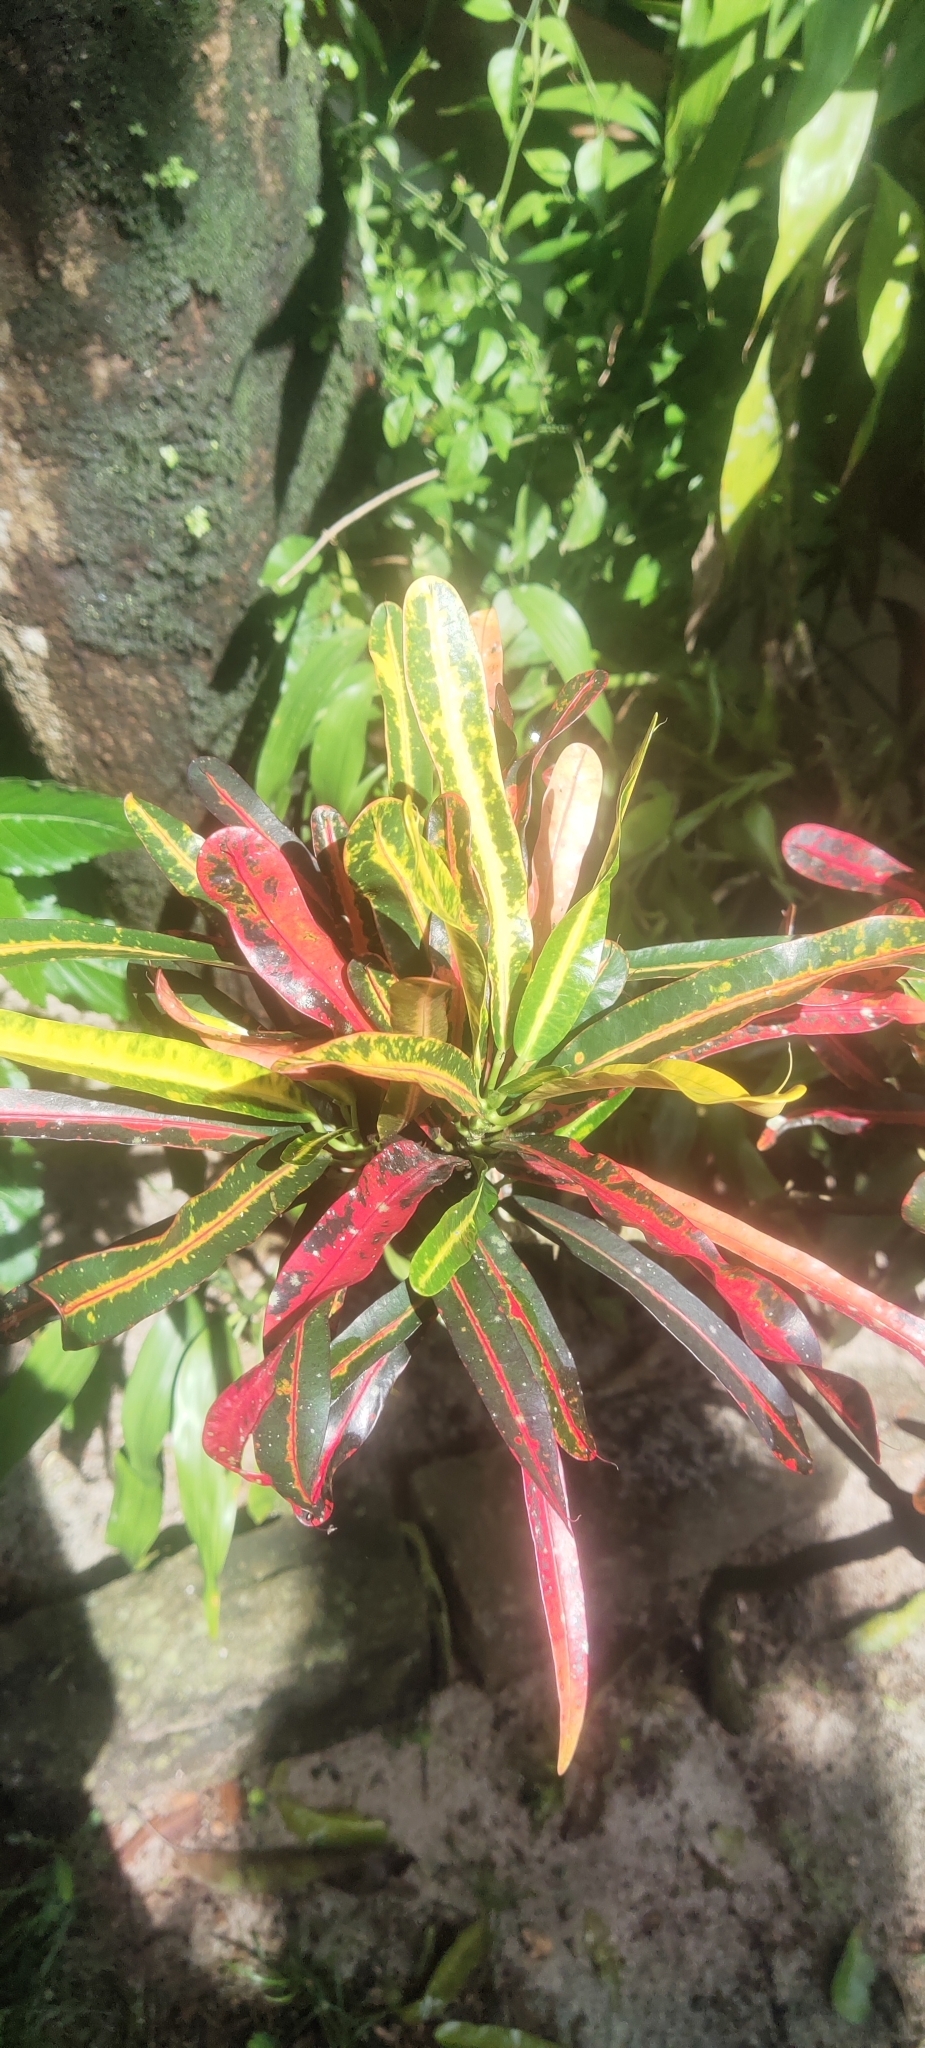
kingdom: Plantae
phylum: Tracheophyta
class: Magnoliopsida
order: Malpighiales
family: Euphorbiaceae
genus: Codiaeum
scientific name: Codiaeum variegatum
